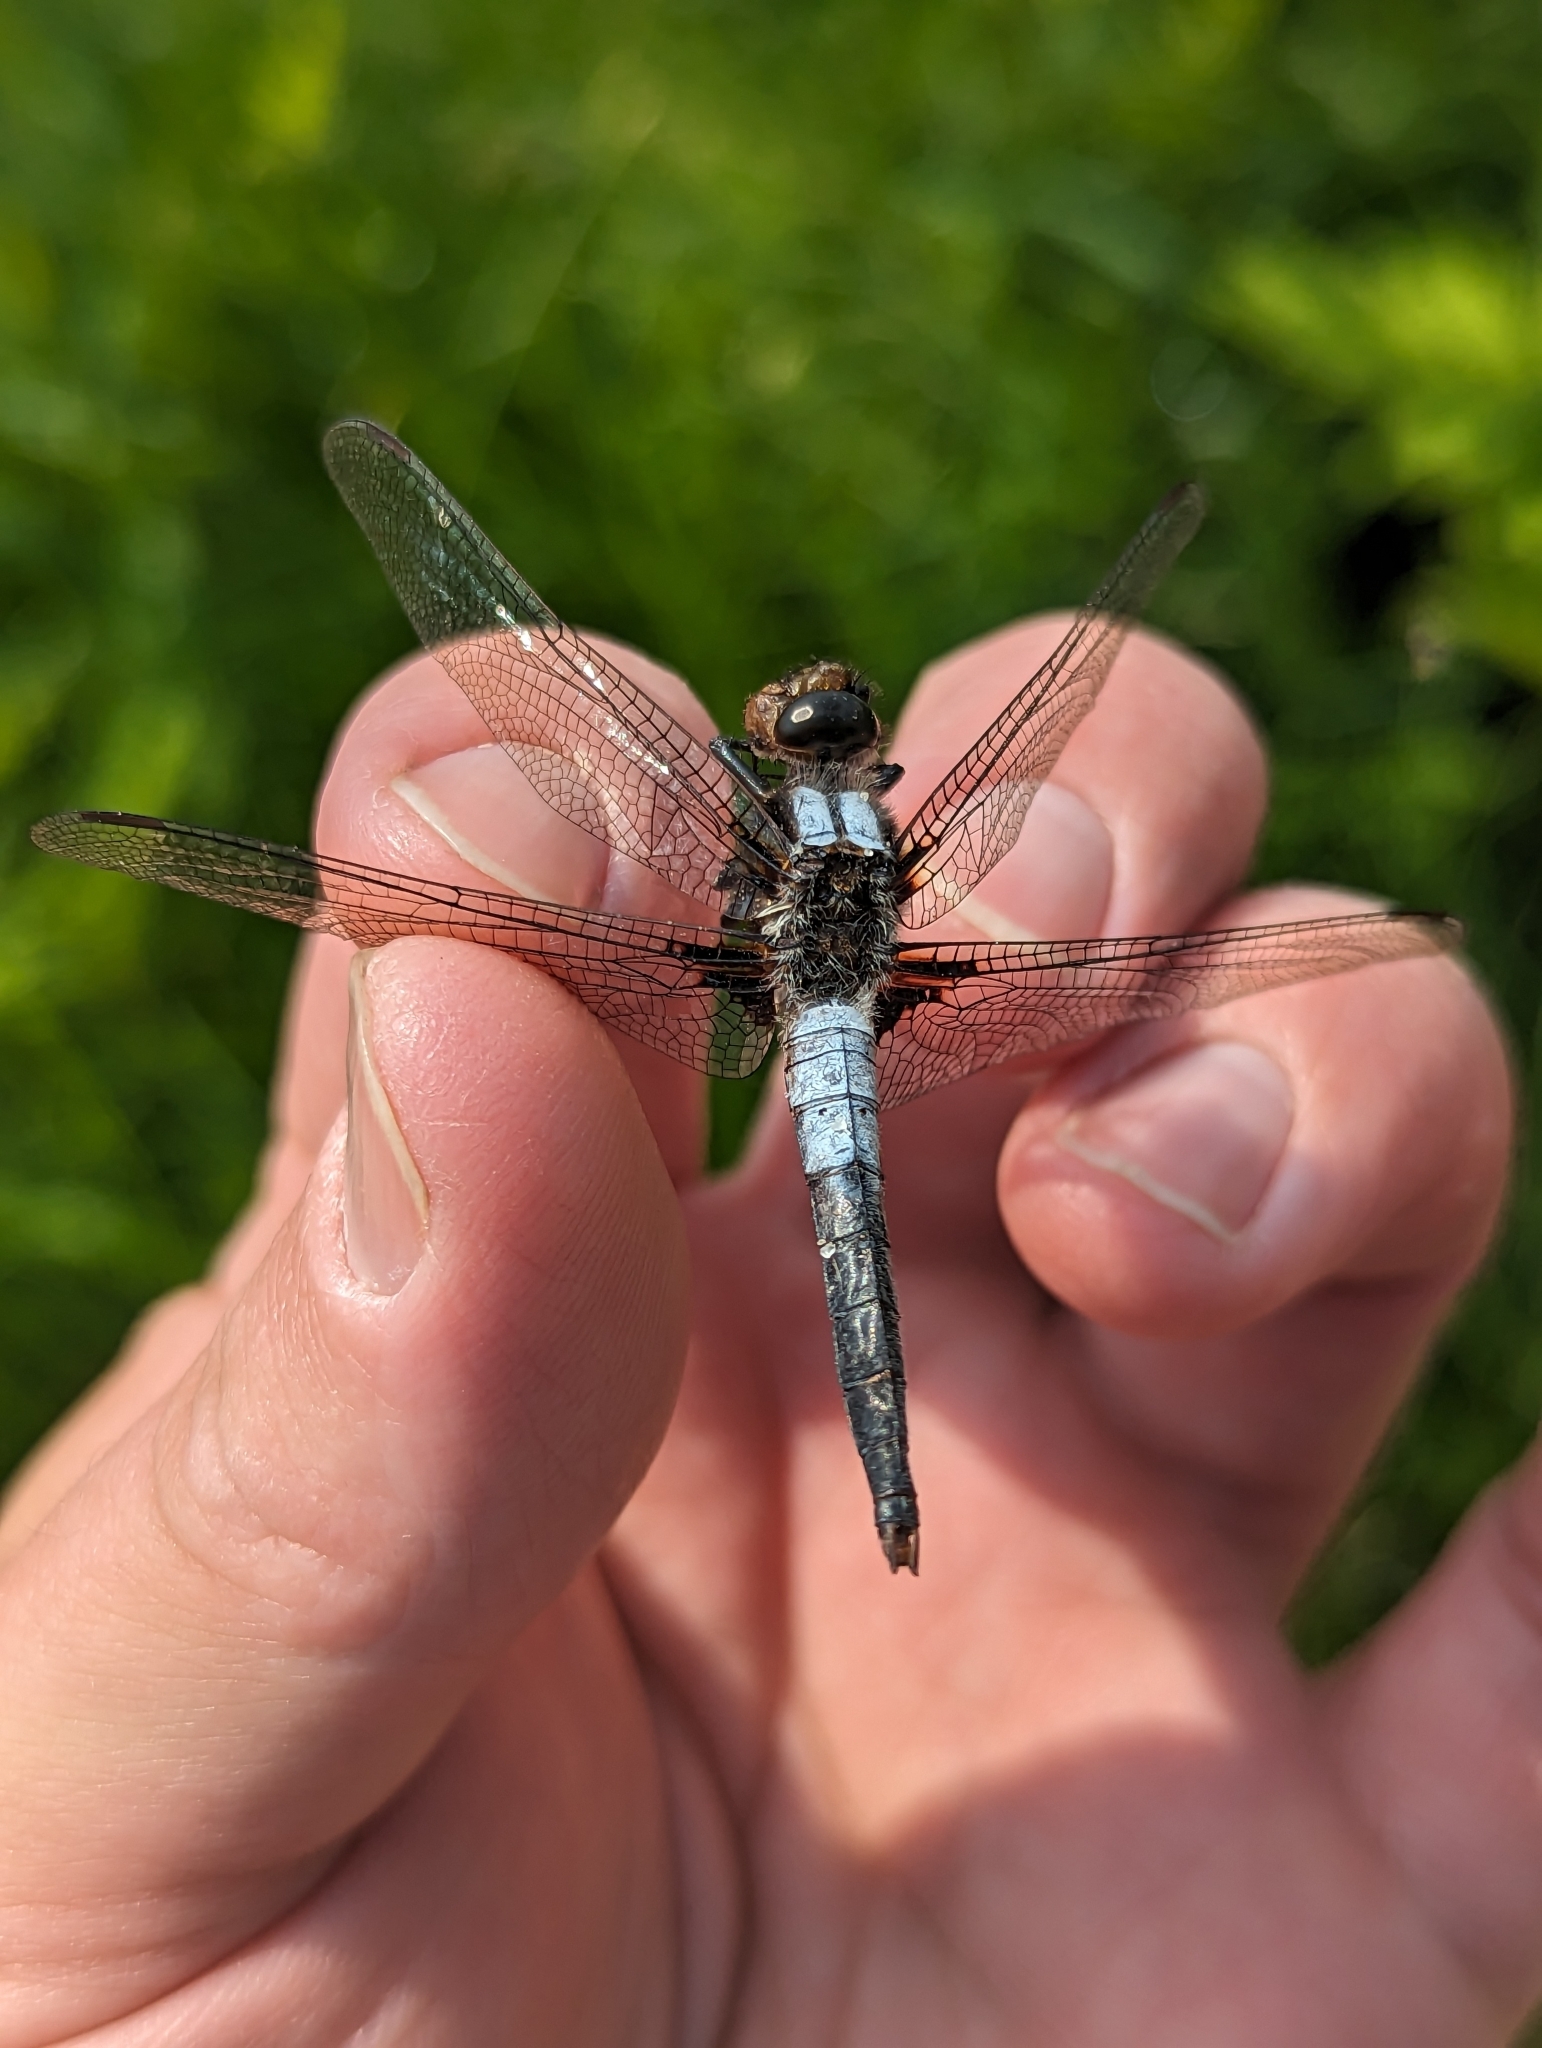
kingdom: Animalia
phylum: Arthropoda
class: Insecta
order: Odonata
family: Libellulidae
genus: Ladona
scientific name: Ladona julia
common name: Chalk-fronted corporal
